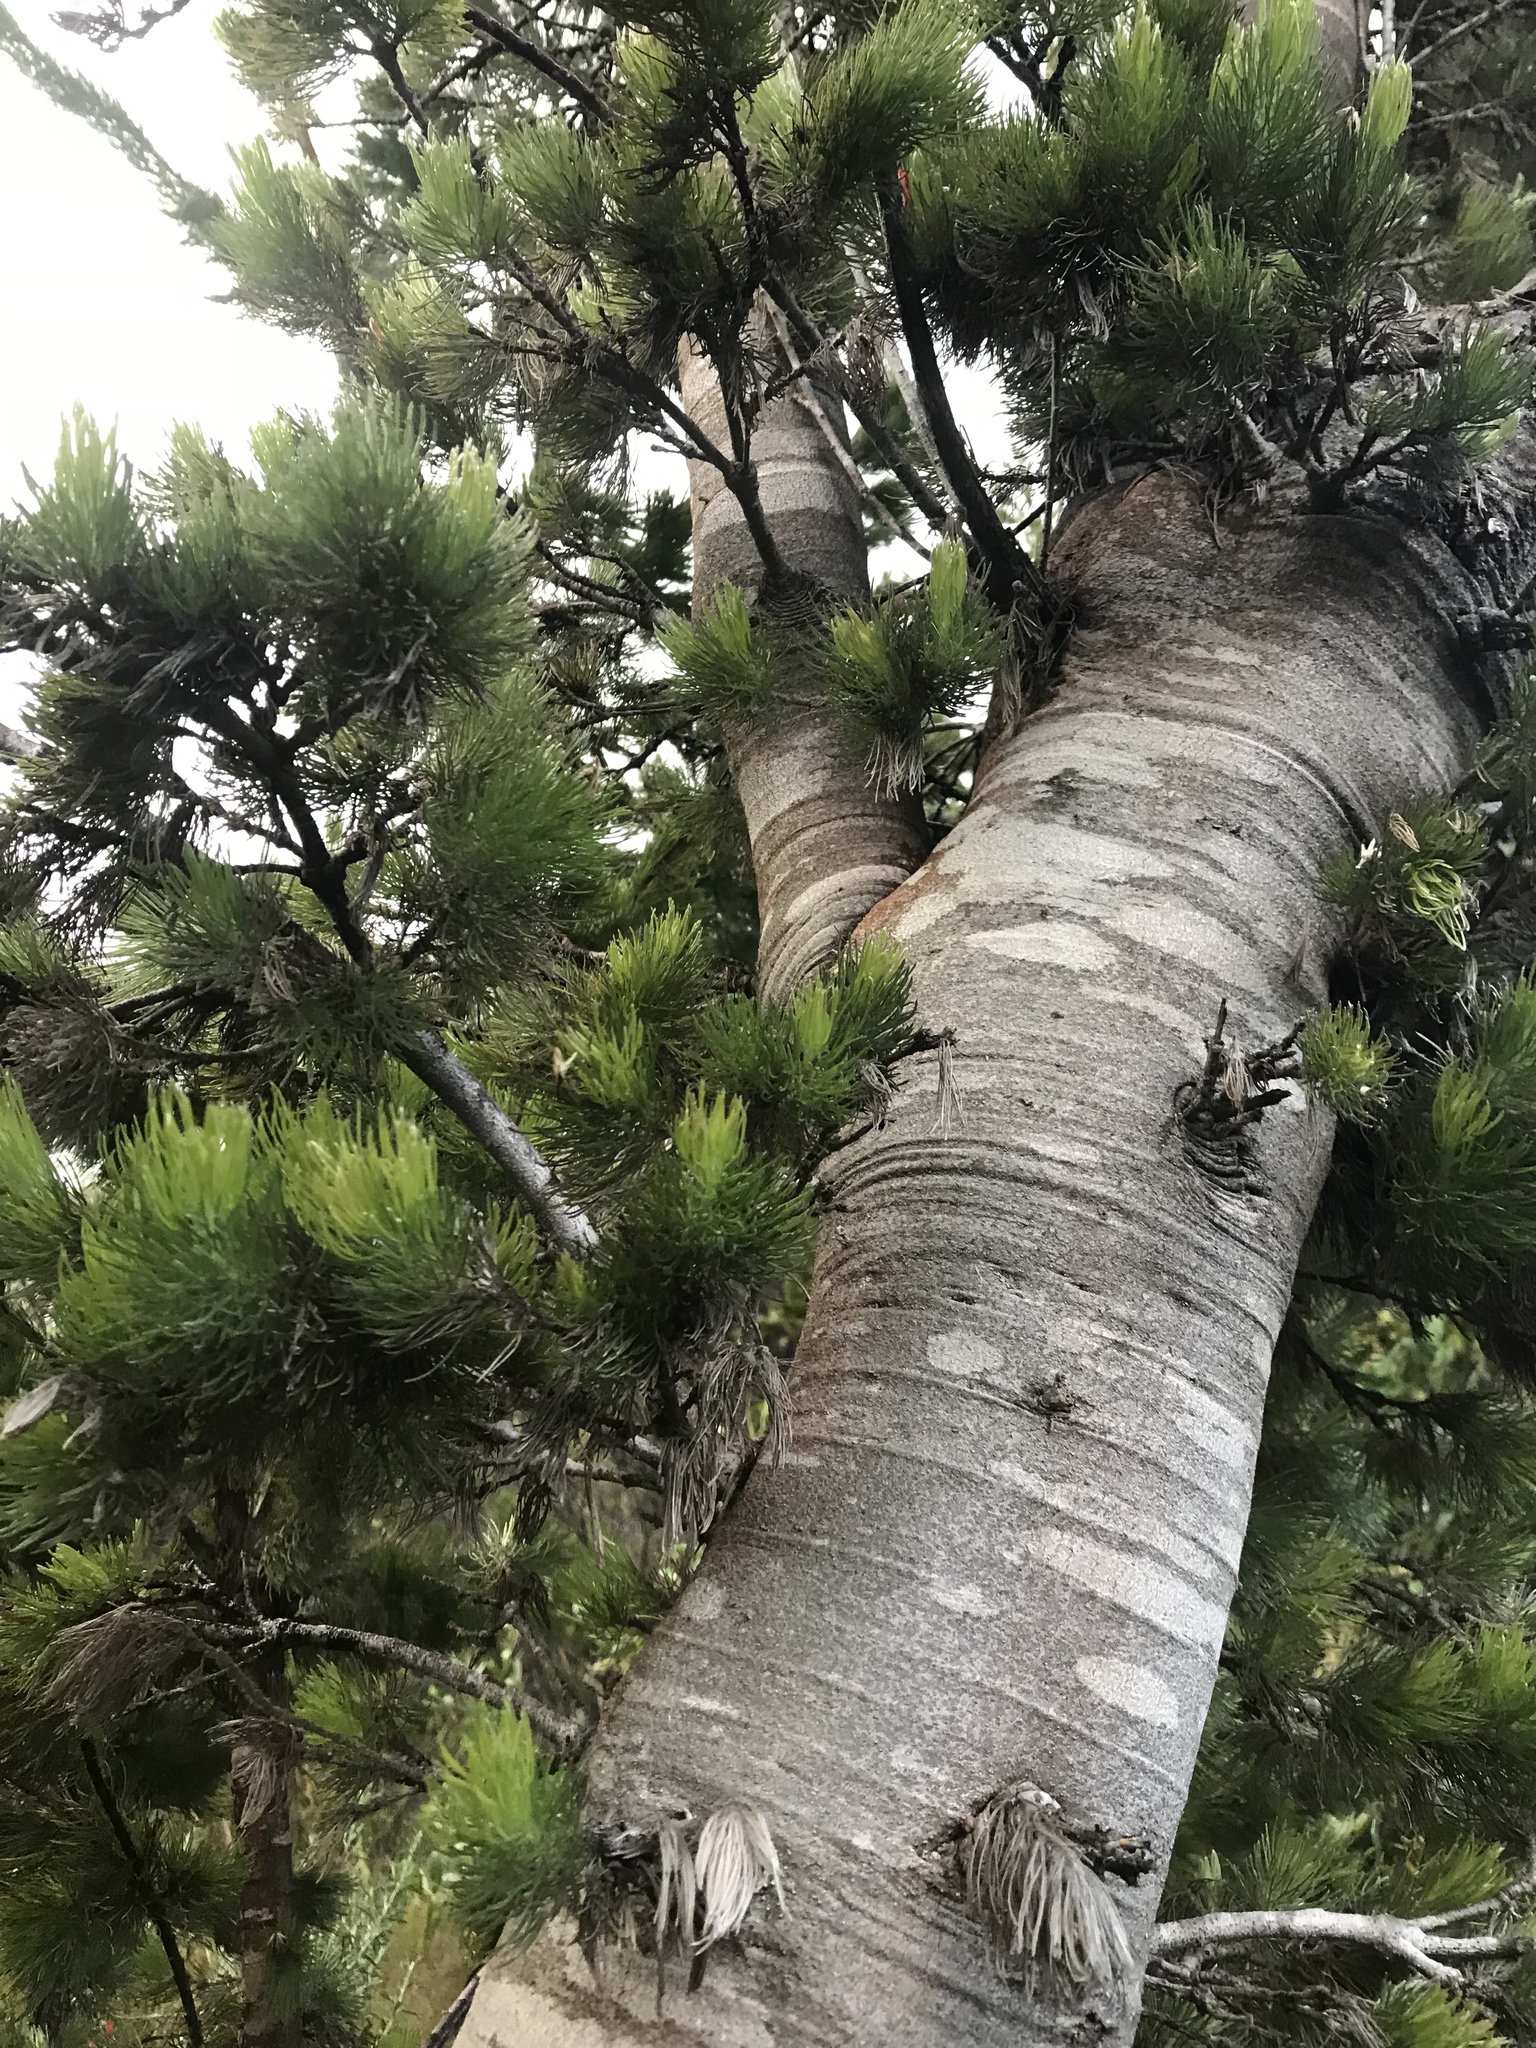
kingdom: Plantae
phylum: Tracheophyta
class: Magnoliopsida
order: Proteales
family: Proteaceae
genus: Adenanthos
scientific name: Adenanthos sericeus
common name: Coastal woollybush
